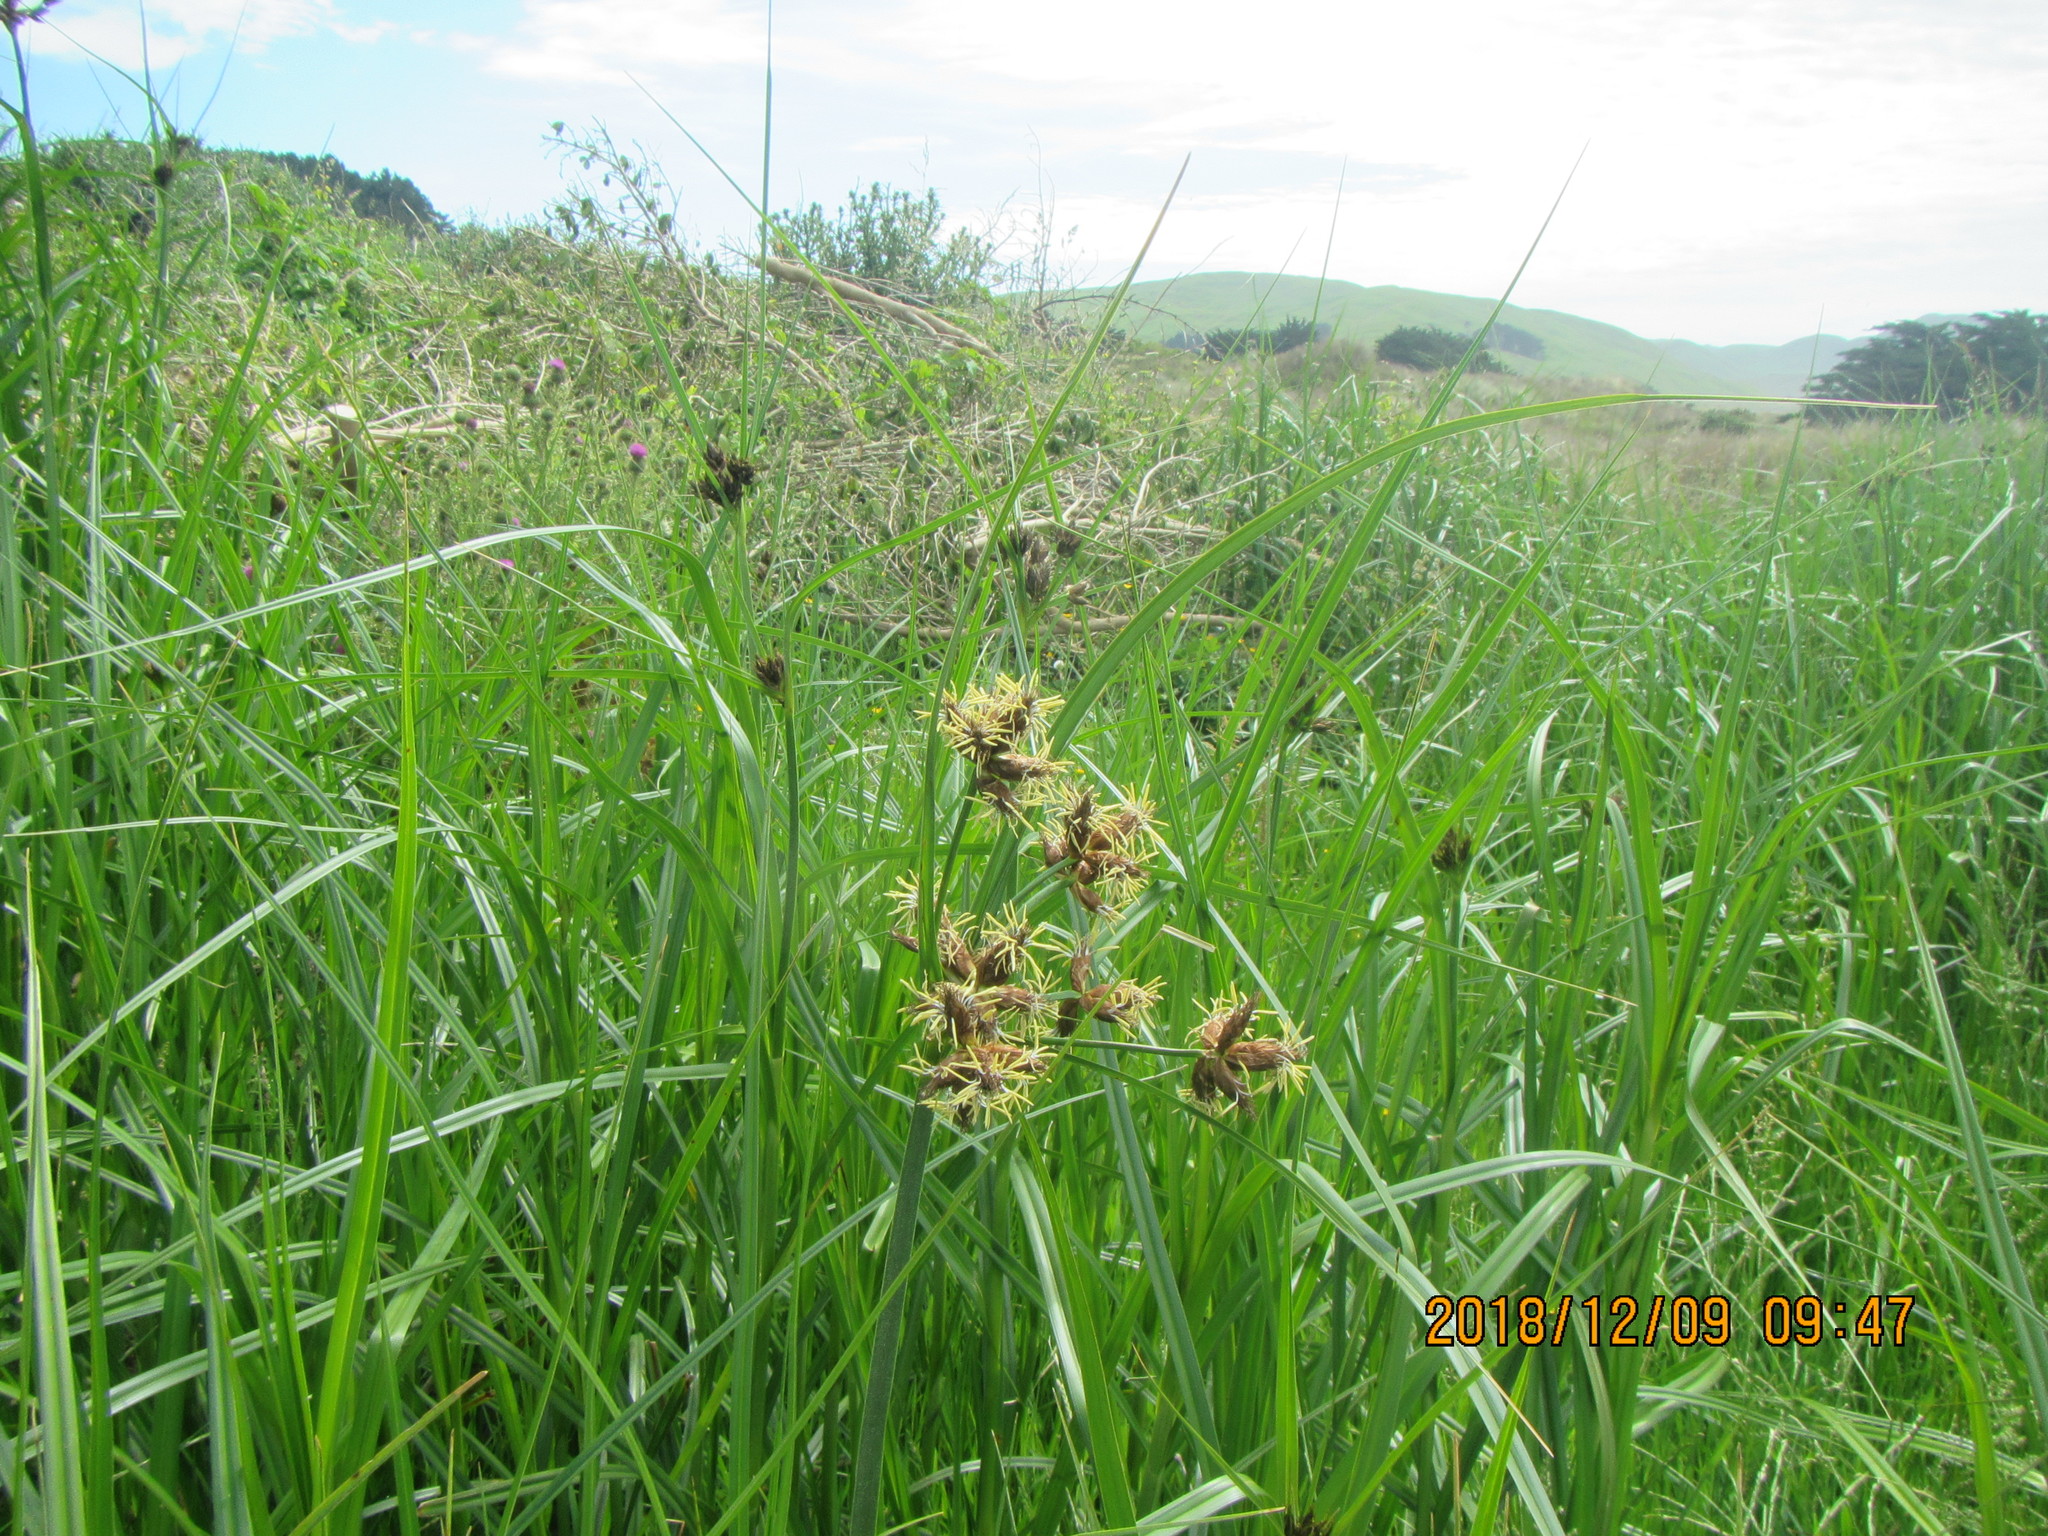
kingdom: Plantae
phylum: Tracheophyta
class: Liliopsida
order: Poales
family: Cyperaceae
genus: Bolboschoenus
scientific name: Bolboschoenus fluviatilis
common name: River bulrush
